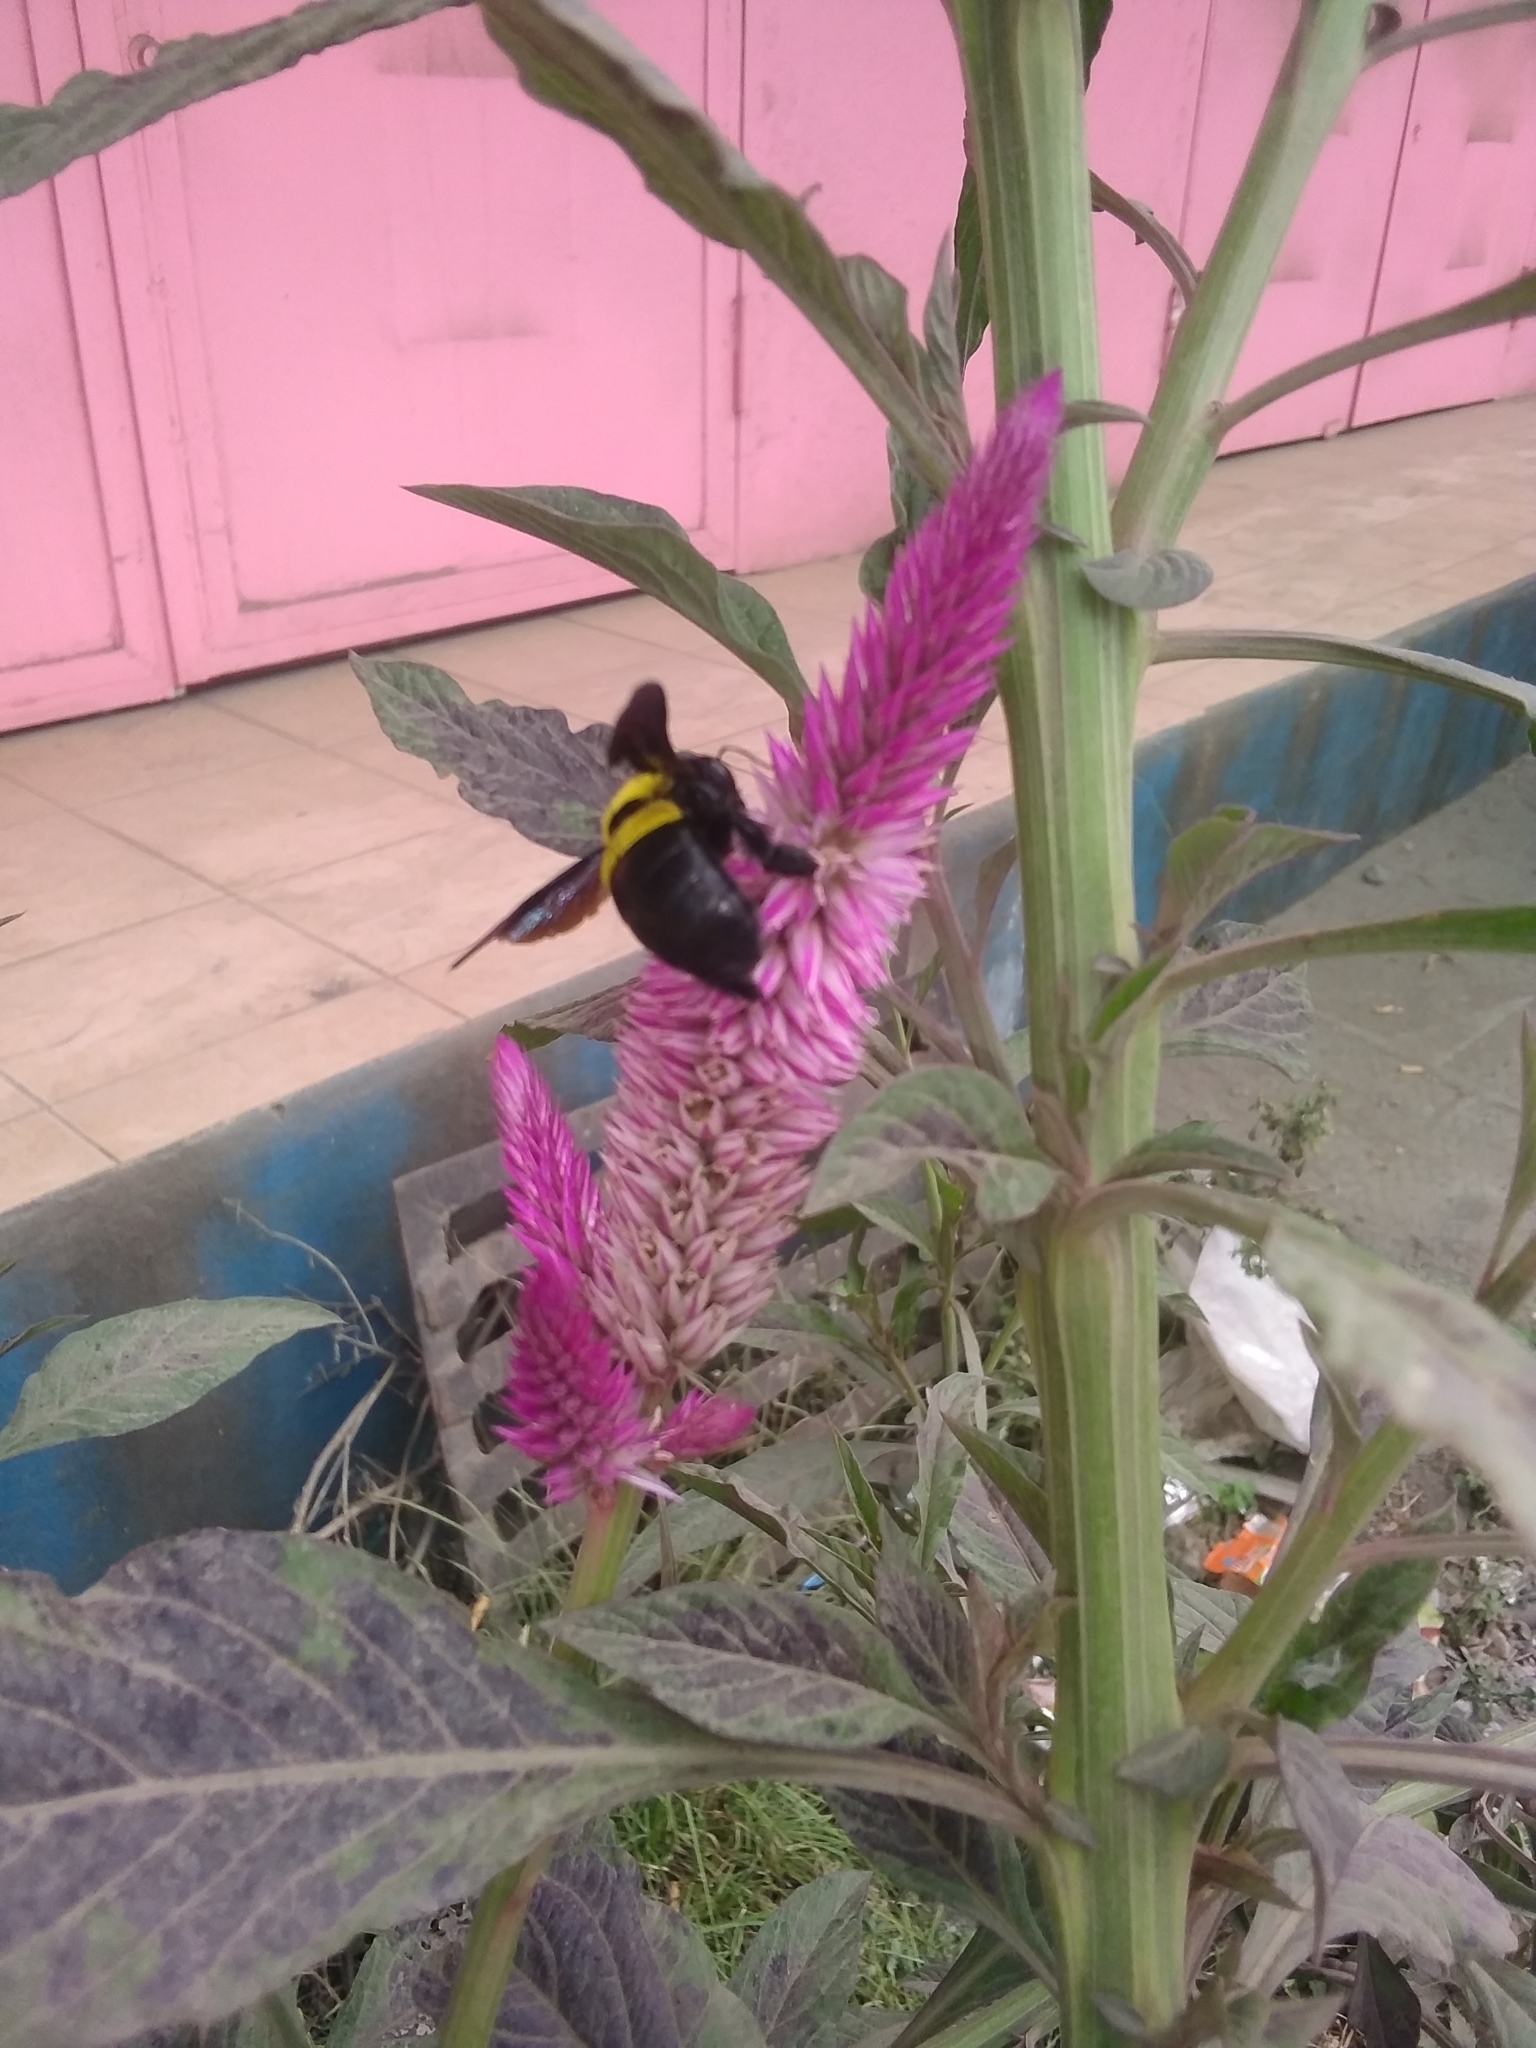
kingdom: Animalia
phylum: Arthropoda
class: Insecta
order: Hymenoptera
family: Apidae
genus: Xylocopa
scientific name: Xylocopa caffra
